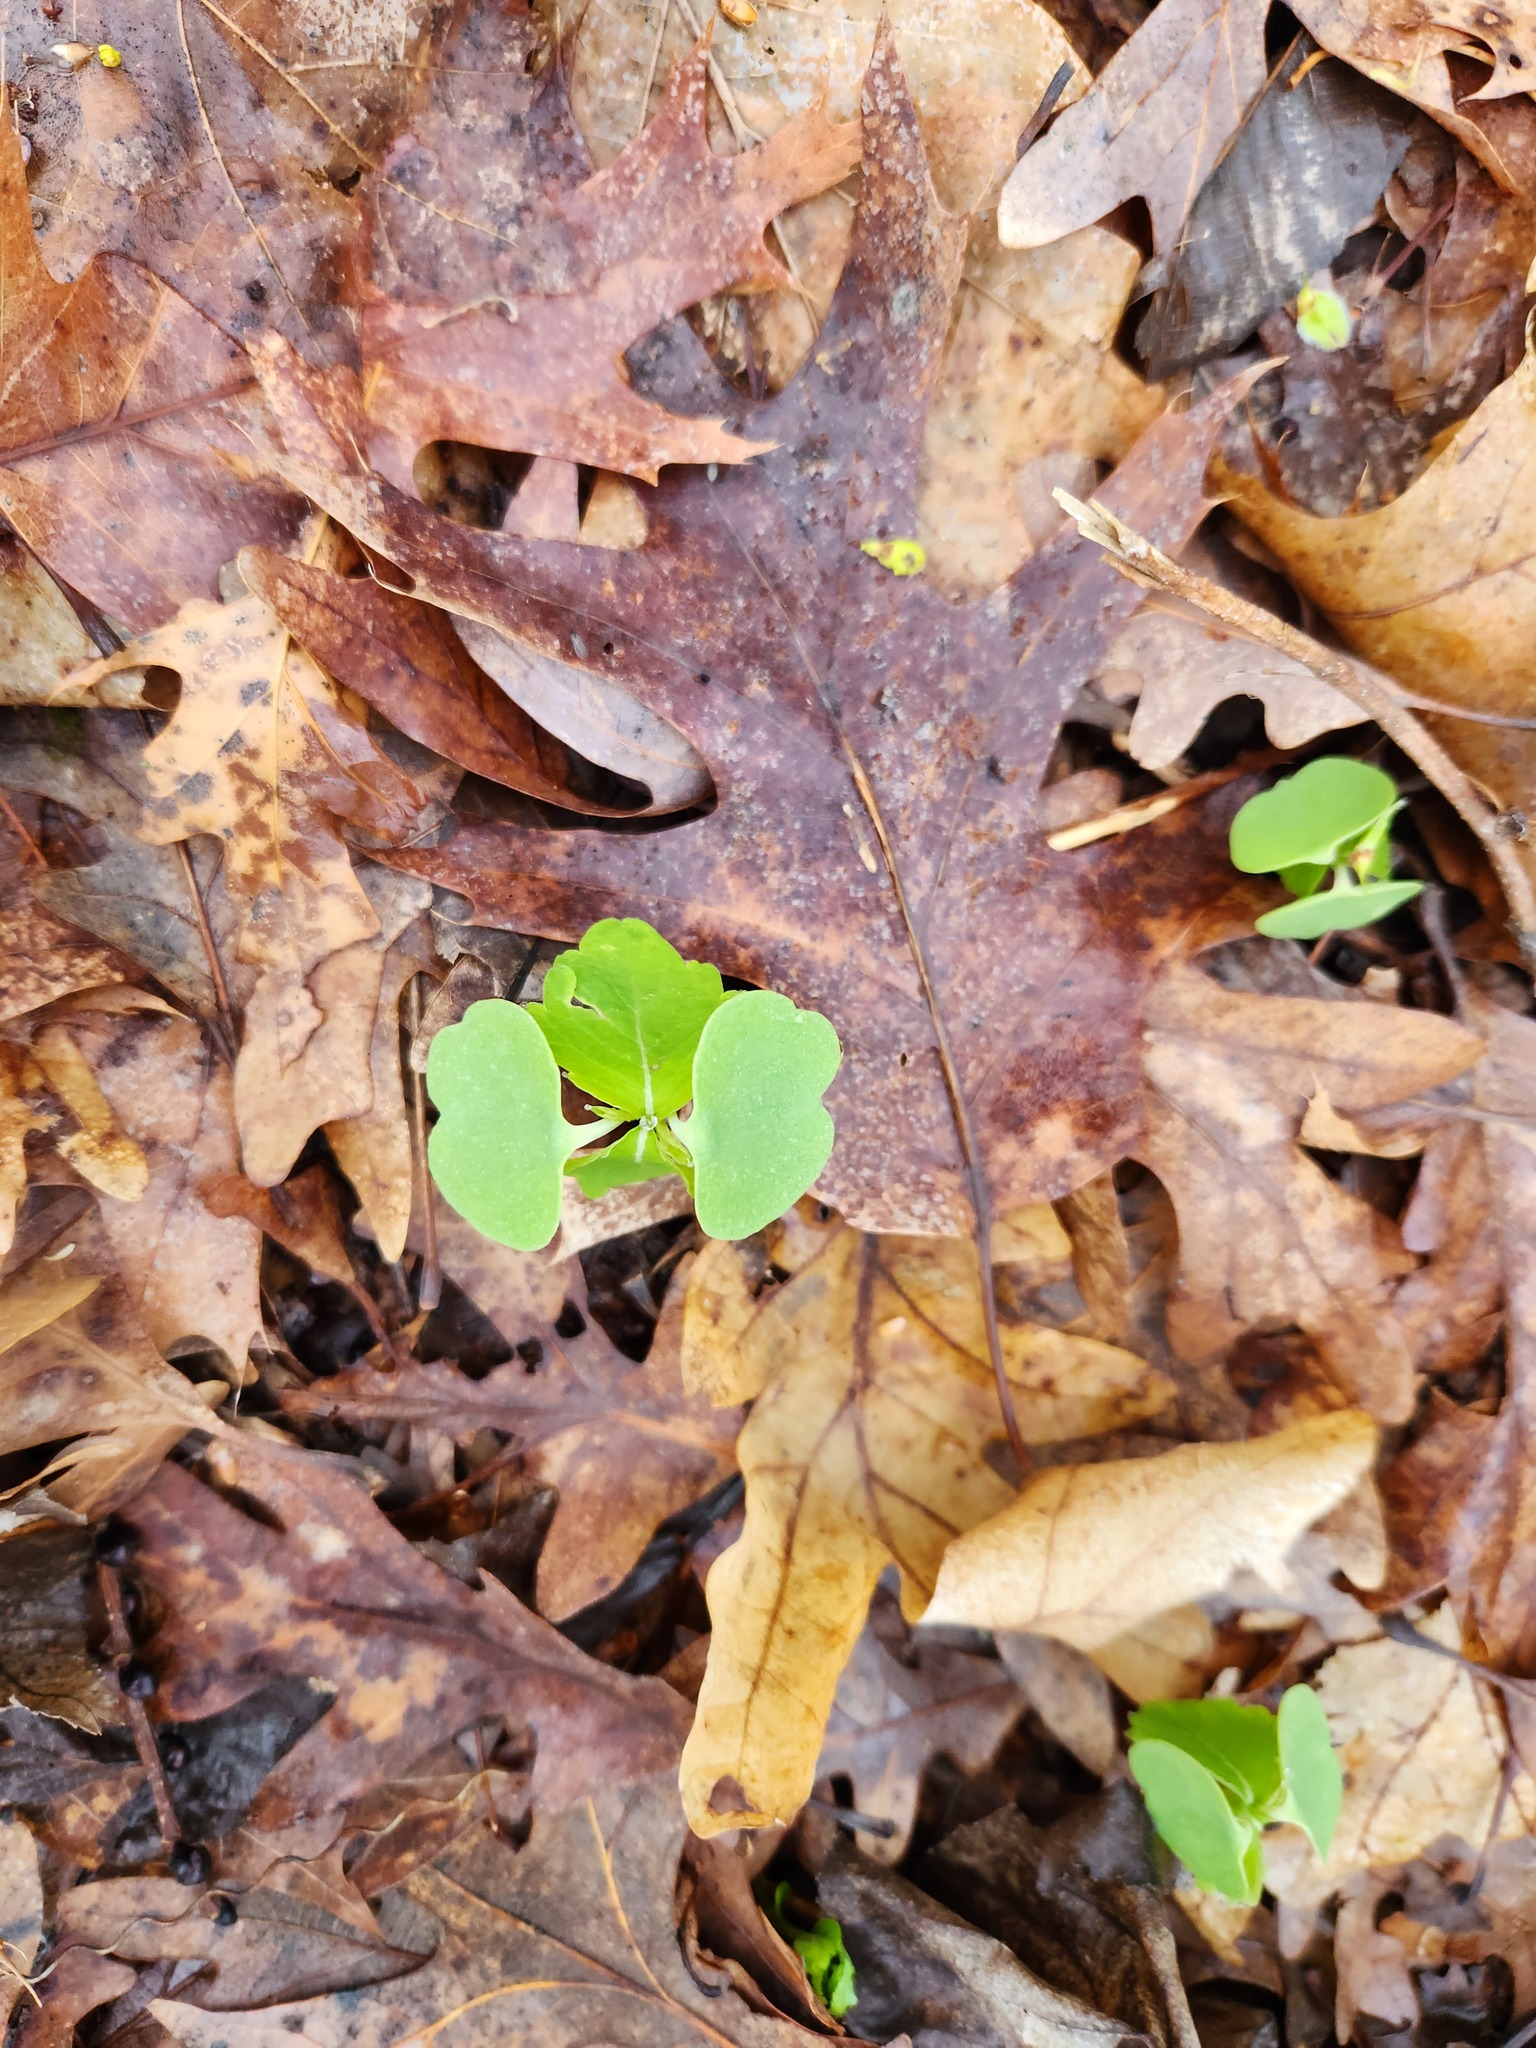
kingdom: Plantae
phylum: Tracheophyta
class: Magnoliopsida
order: Ericales
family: Balsaminaceae
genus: Impatiens
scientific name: Impatiens
